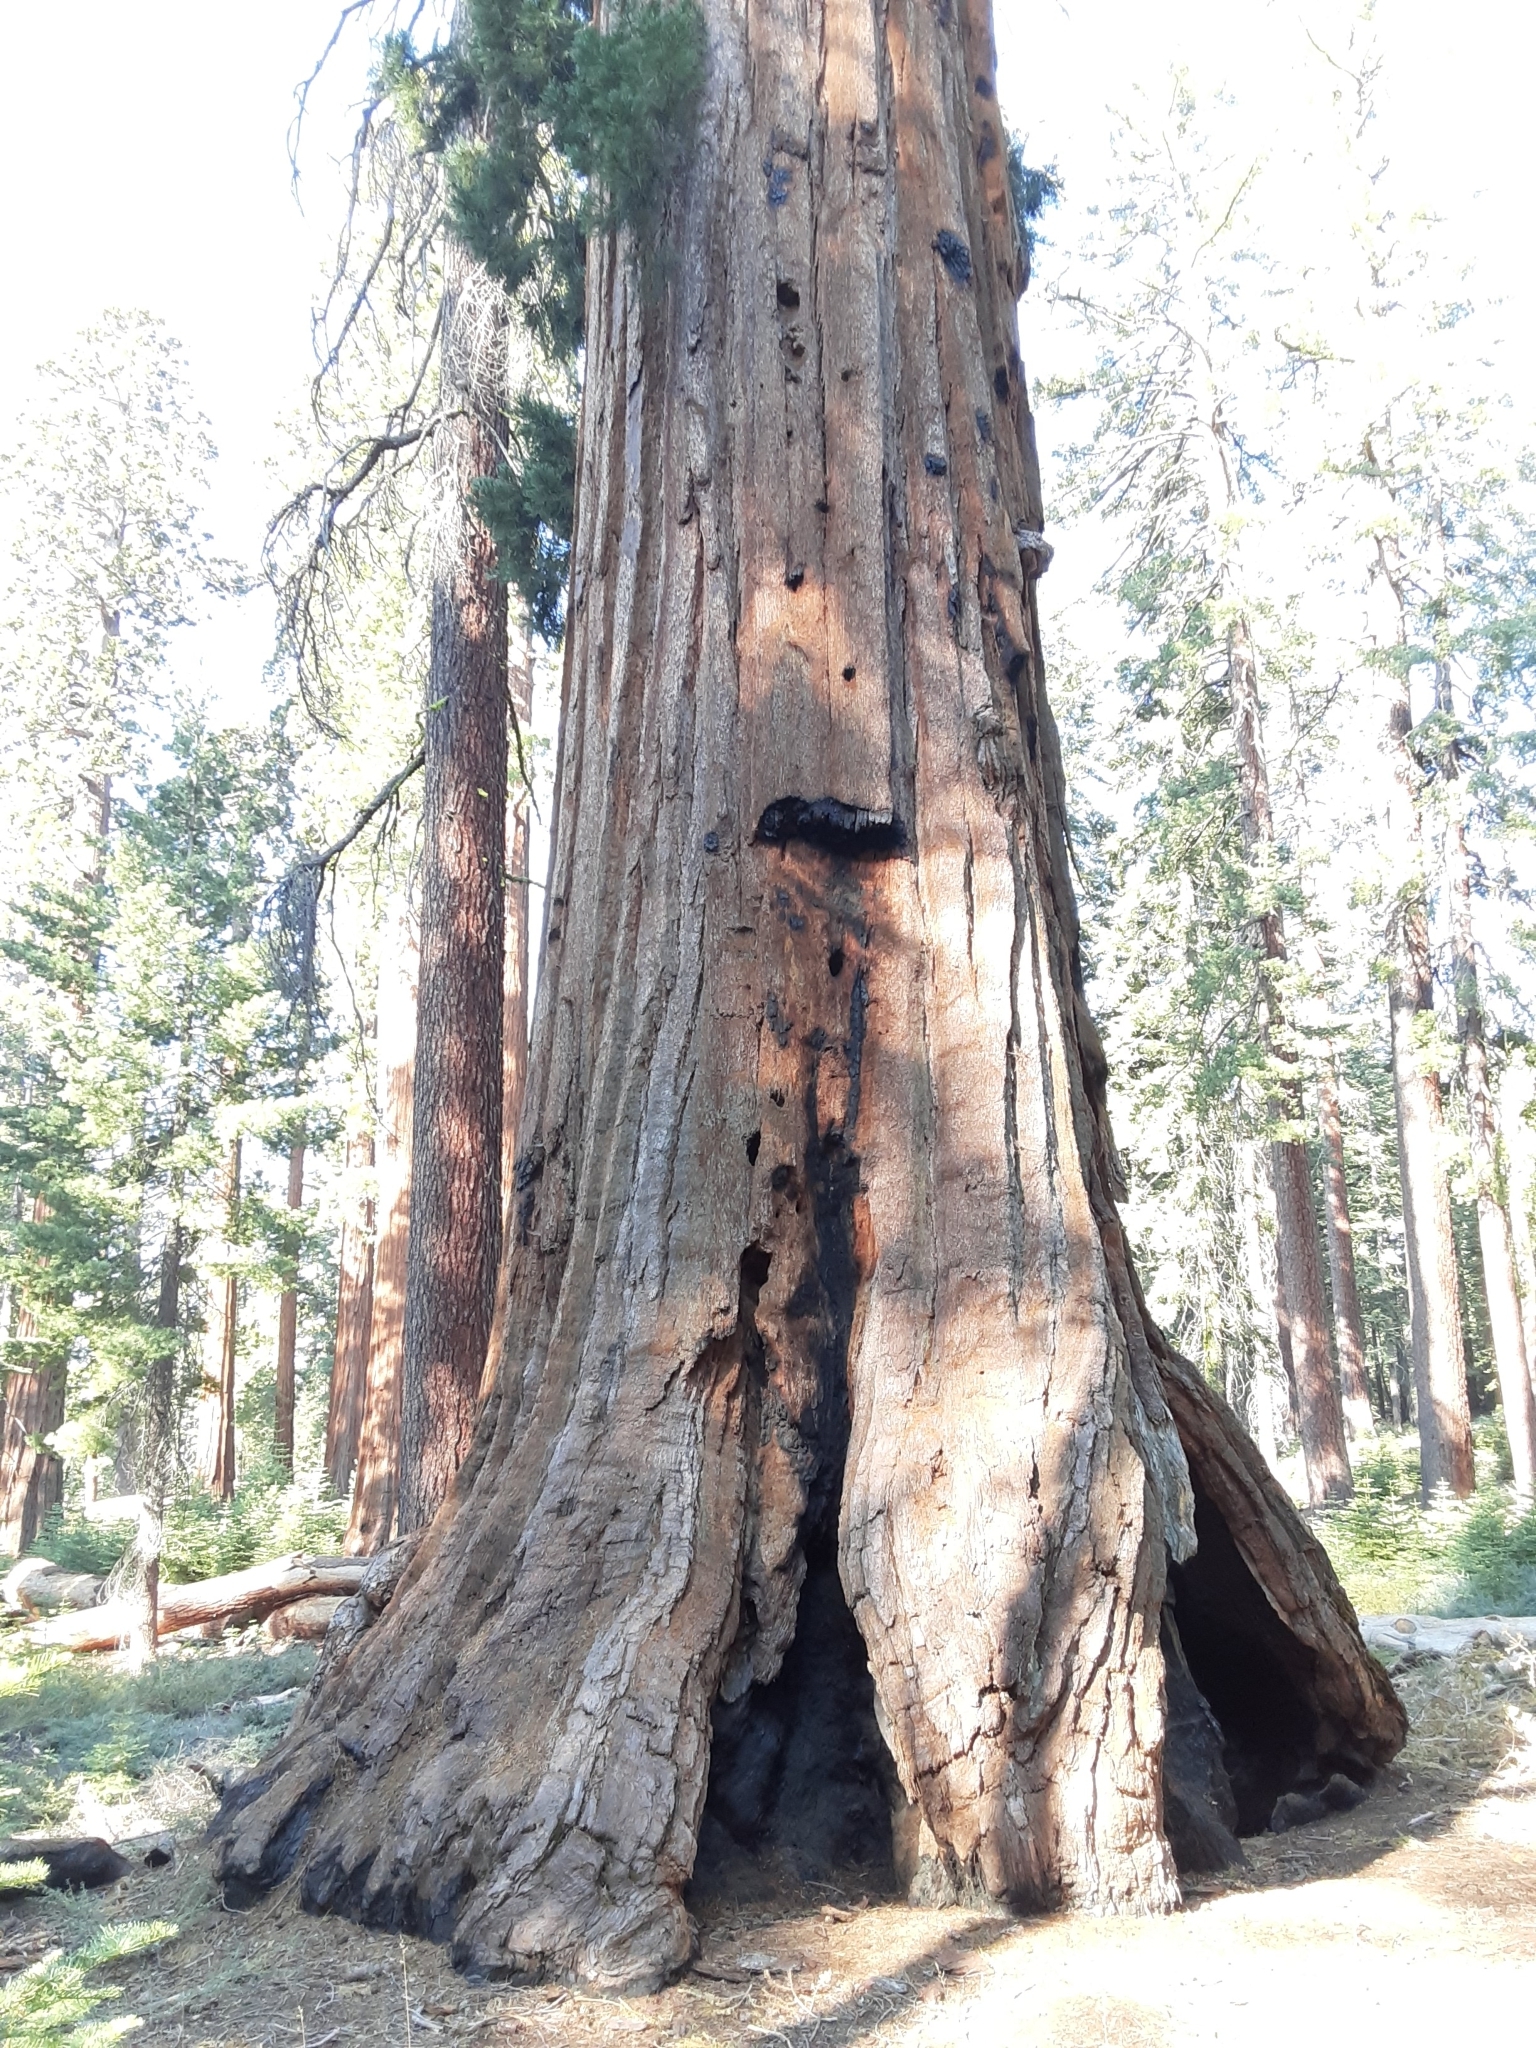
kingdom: Plantae
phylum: Tracheophyta
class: Pinopsida
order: Pinales
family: Cupressaceae
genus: Sequoiadendron
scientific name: Sequoiadendron giganteum
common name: Wellingtonia
